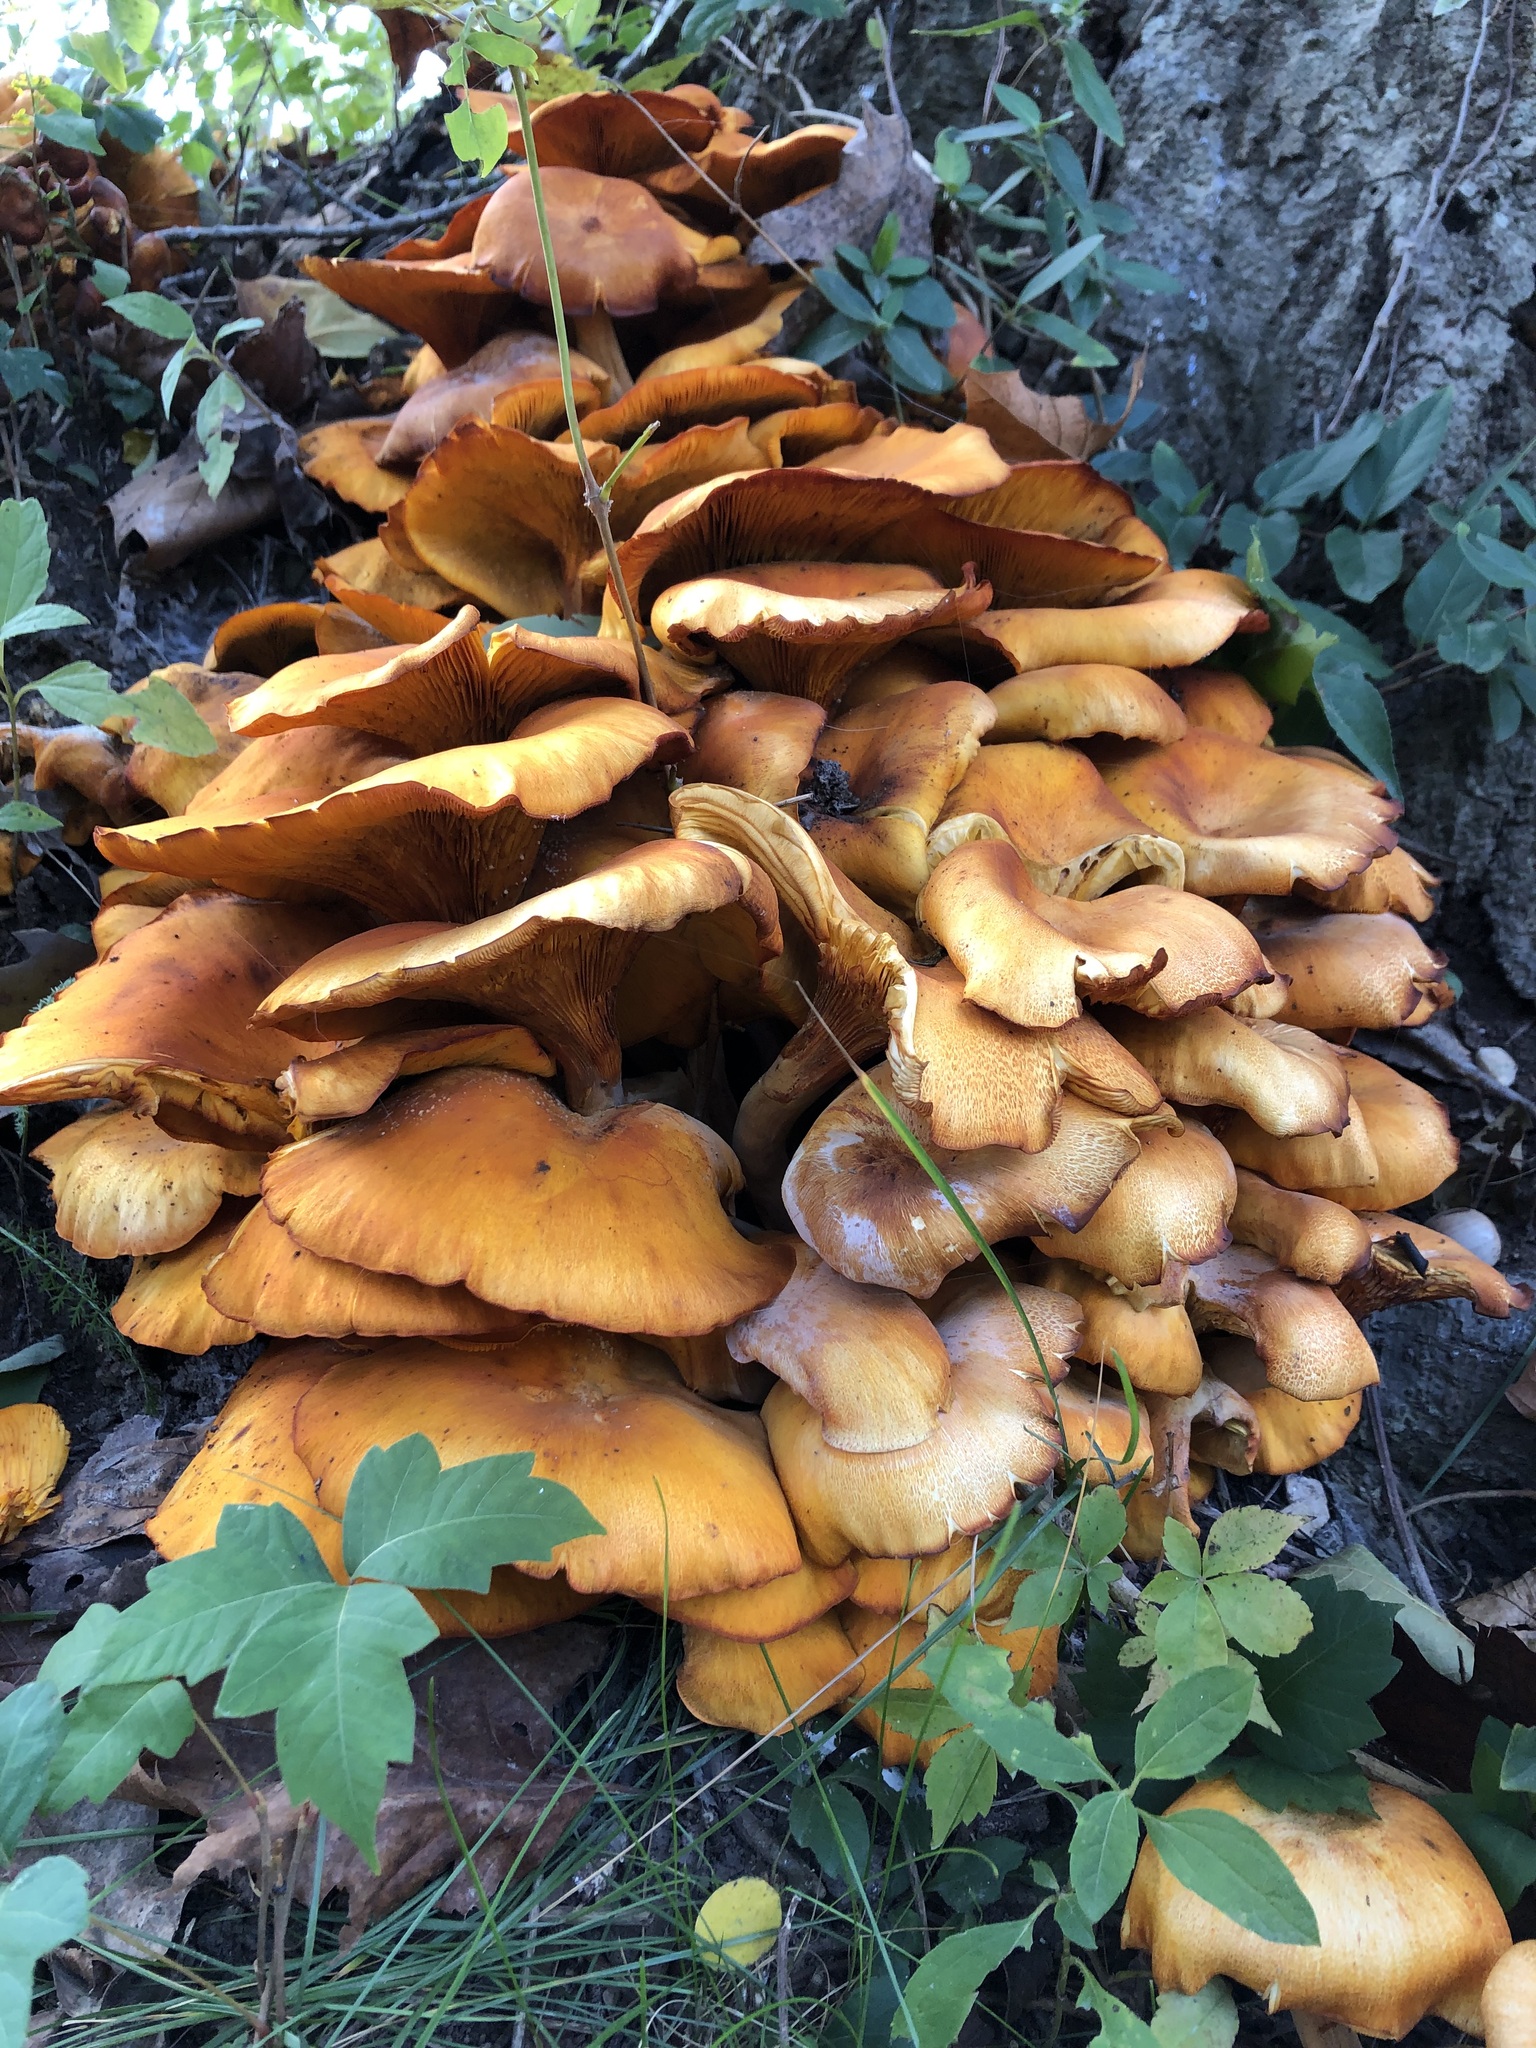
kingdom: Fungi
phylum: Basidiomycota
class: Agaricomycetes
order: Agaricales
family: Omphalotaceae
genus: Omphalotus
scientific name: Omphalotus illudens
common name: Jack o lantern
